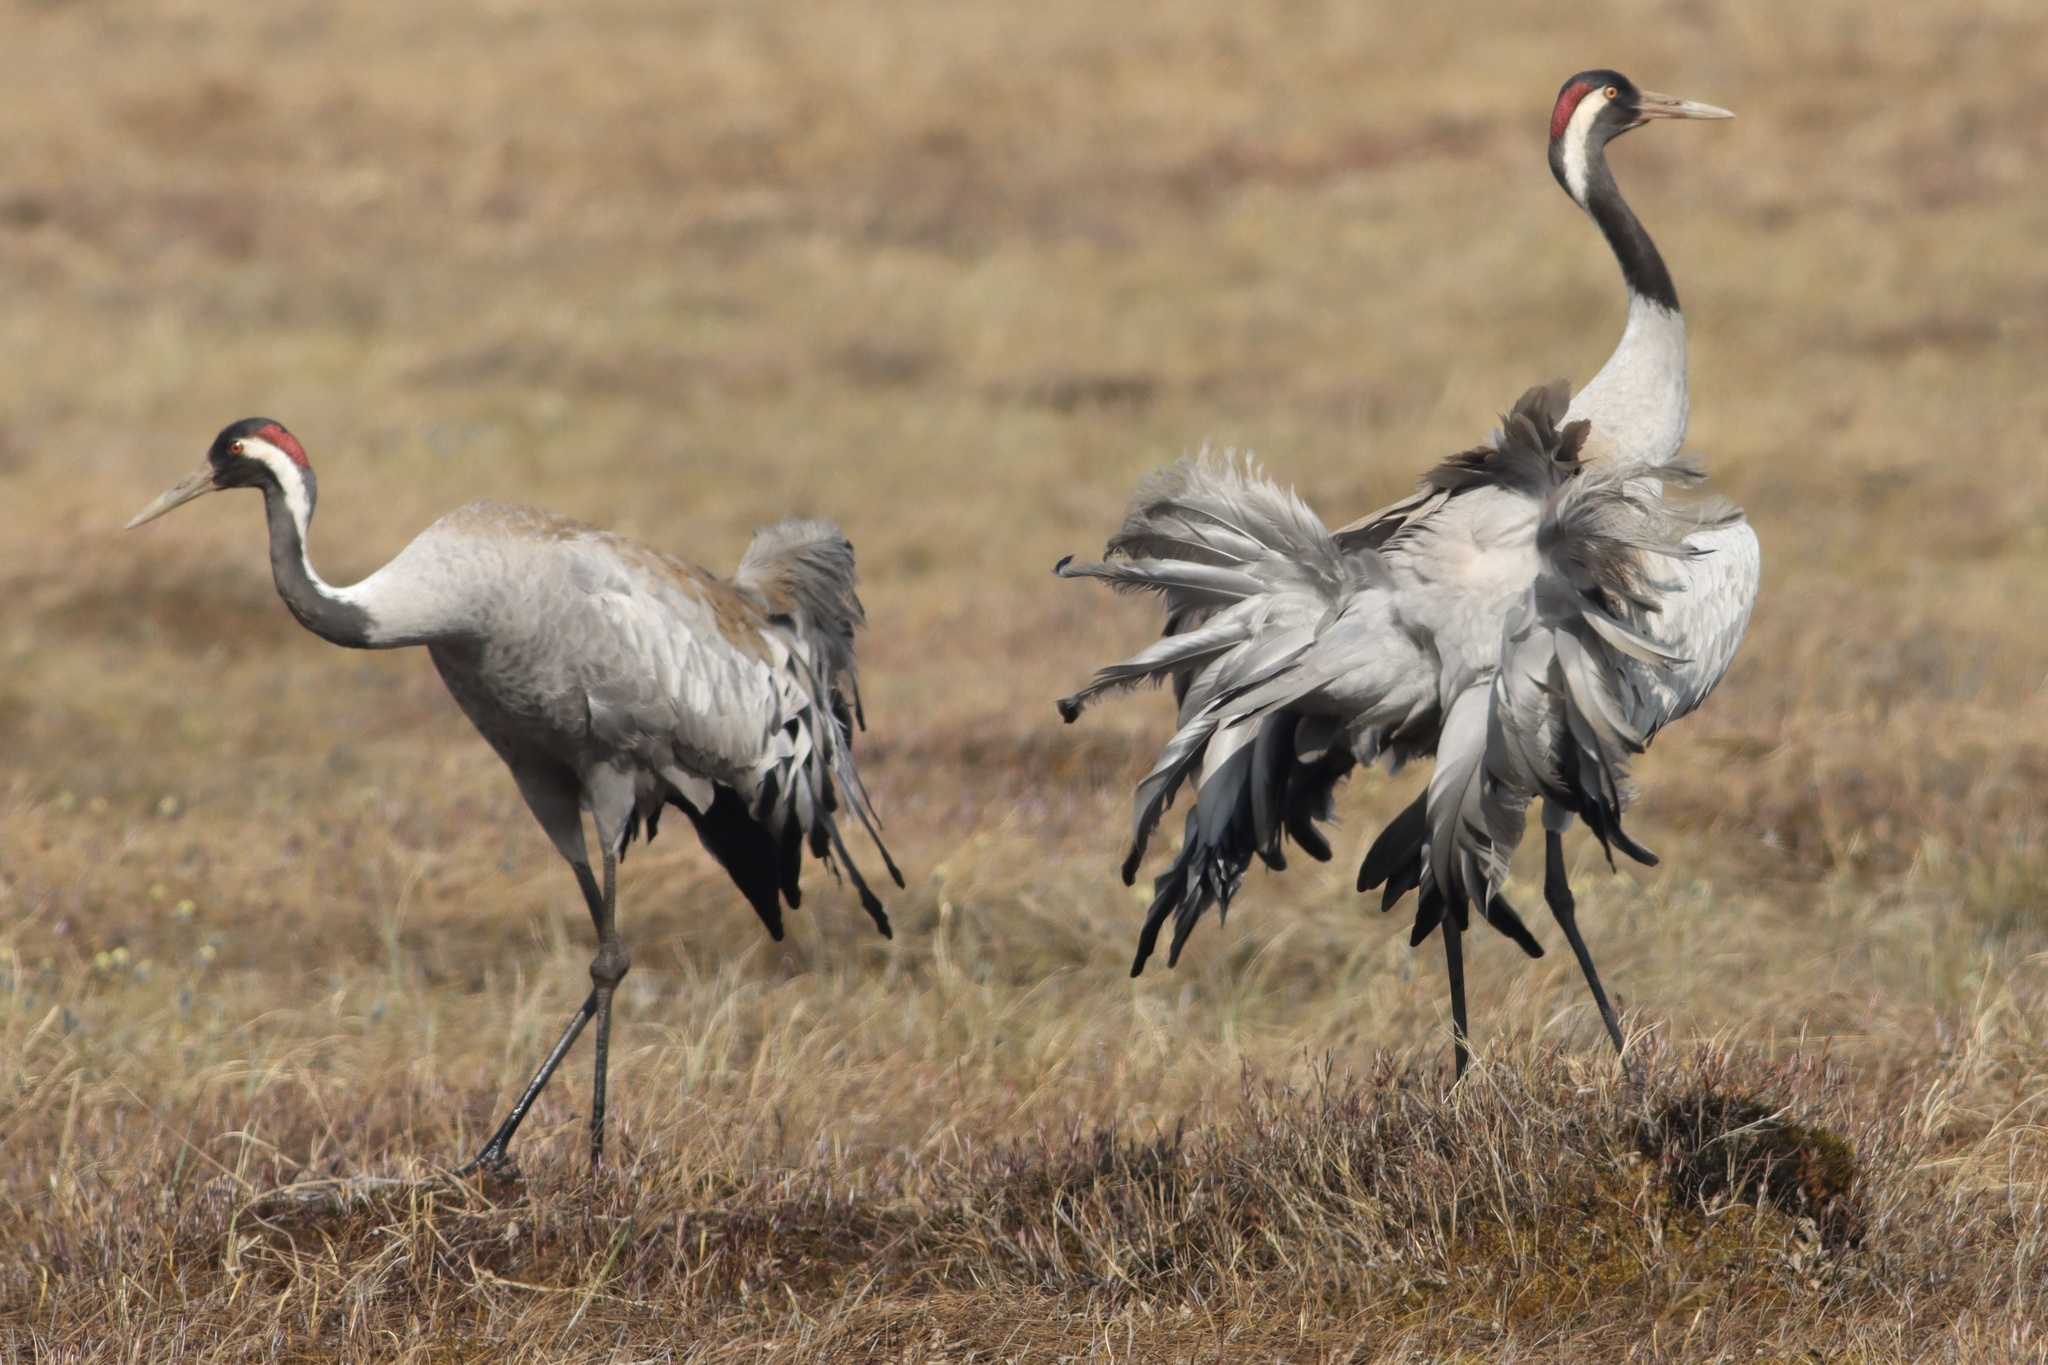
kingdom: Animalia
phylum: Chordata
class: Aves
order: Gruiformes
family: Gruidae
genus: Grus
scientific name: Grus grus
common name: Common crane
